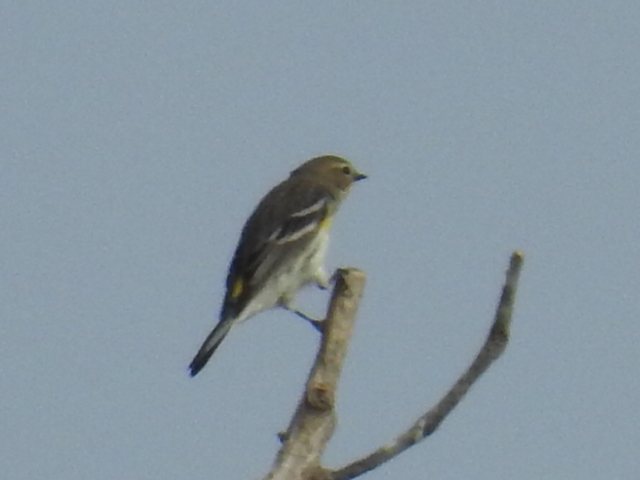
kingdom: Animalia
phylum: Chordata
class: Aves
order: Passeriformes
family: Parulidae
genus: Setophaga
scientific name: Setophaga coronata
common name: Myrtle warbler
